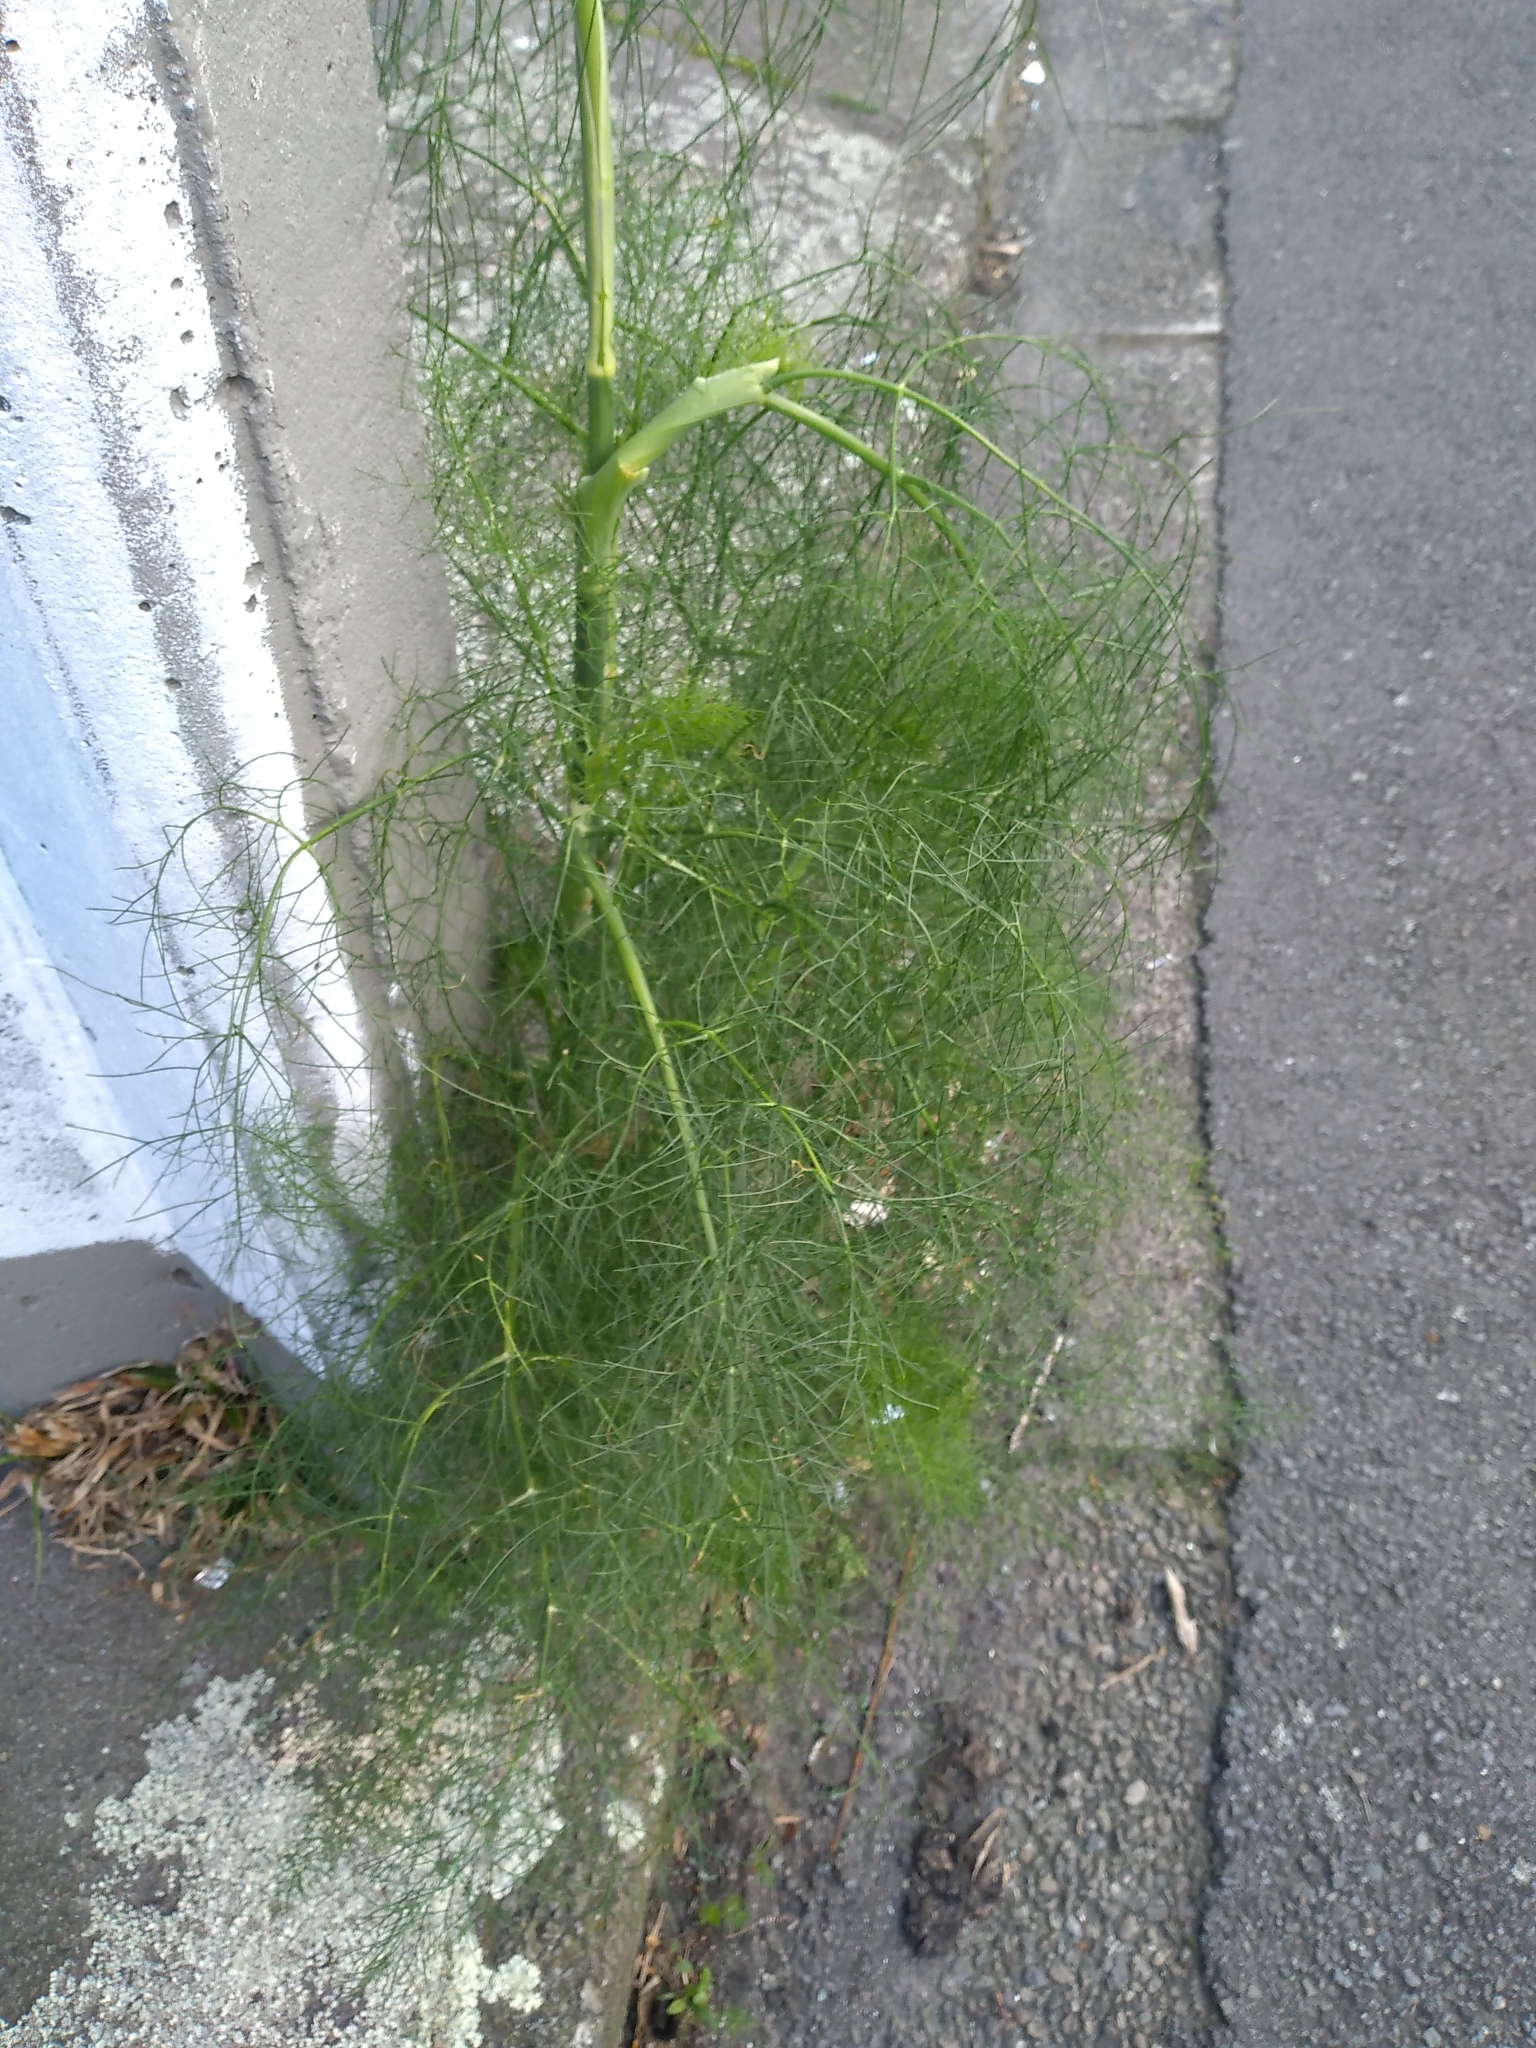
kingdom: Plantae
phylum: Tracheophyta
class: Magnoliopsida
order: Apiales
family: Apiaceae
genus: Foeniculum
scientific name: Foeniculum vulgare
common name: Fennel
